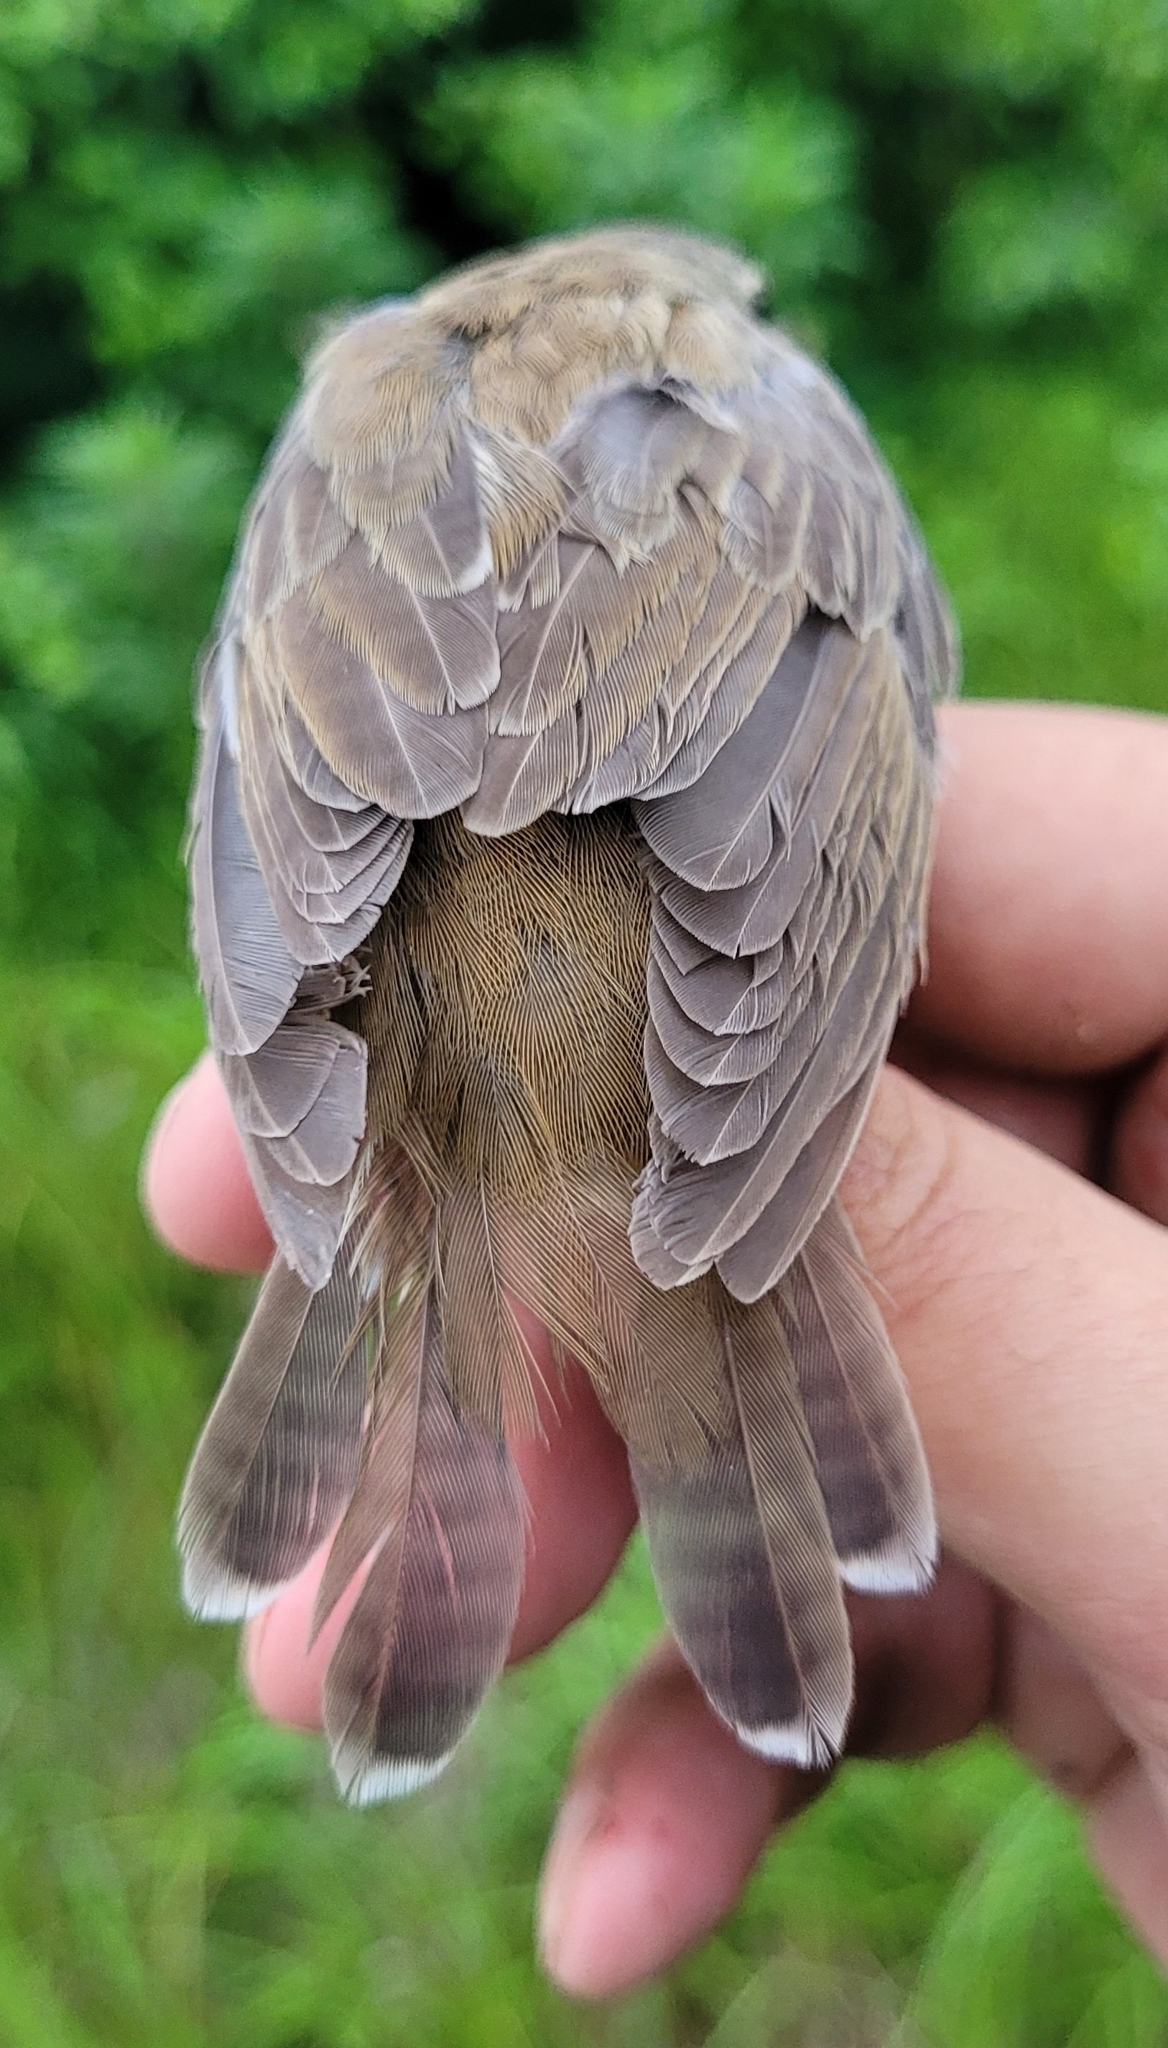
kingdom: Animalia
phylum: Chordata
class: Aves
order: Passeriformes
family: Locustellidae
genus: Locustella
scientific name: Locustella ochotensis
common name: Middendorff's grasshopper-warbler
